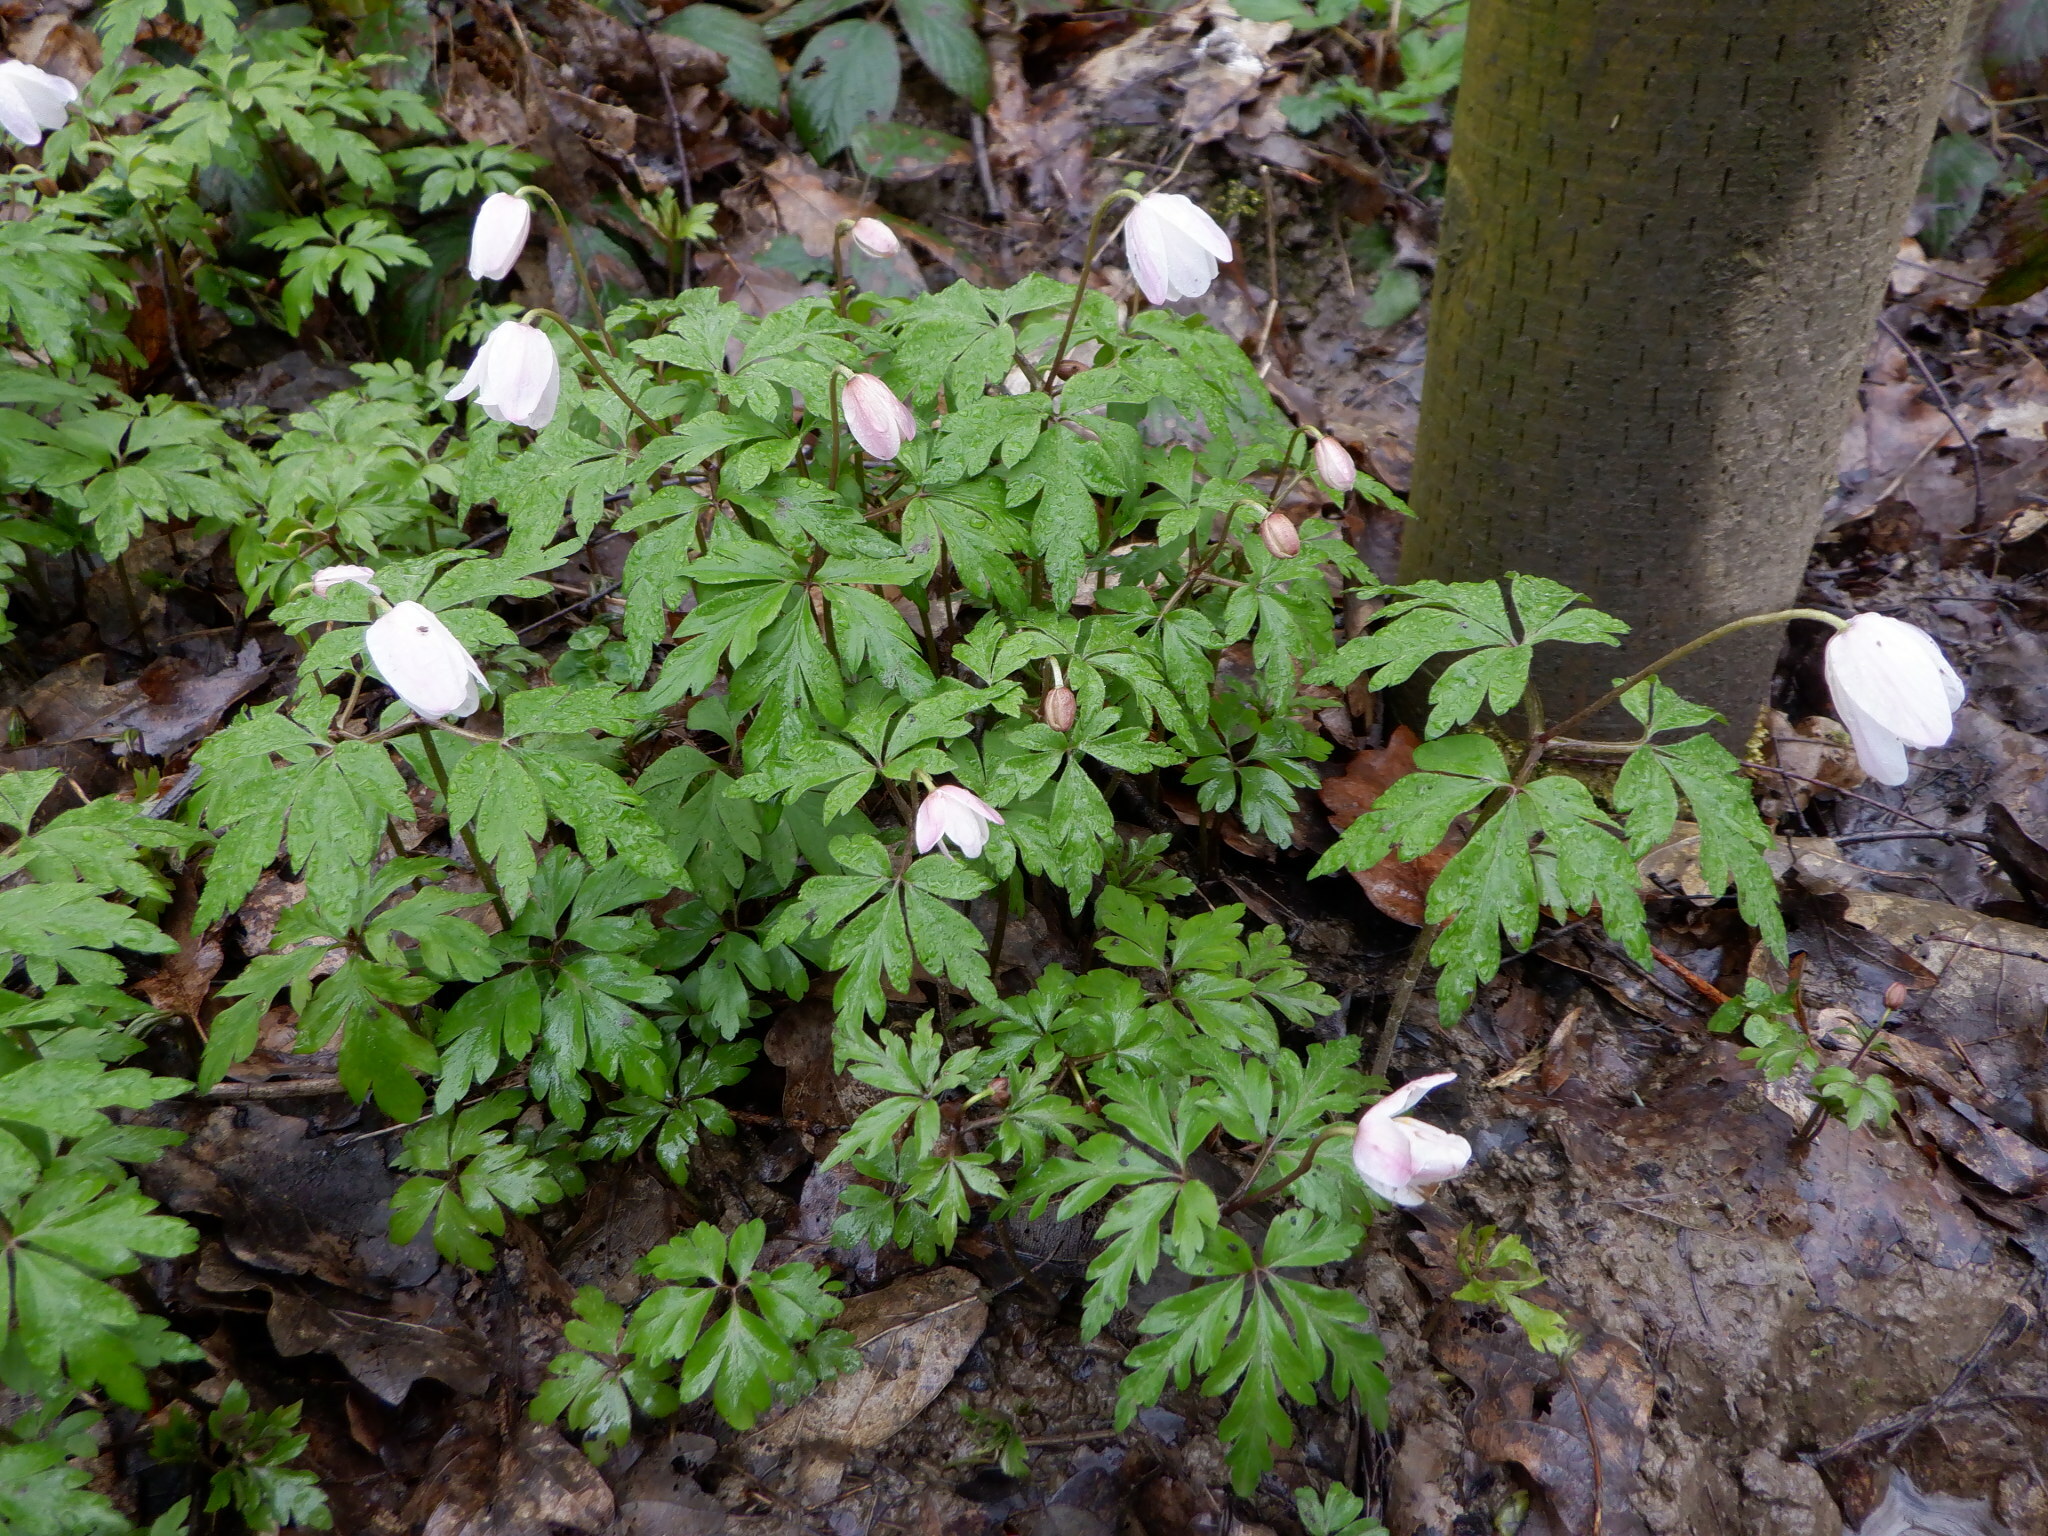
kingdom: Plantae
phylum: Tracheophyta
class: Magnoliopsida
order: Ranunculales
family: Ranunculaceae
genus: Anemone
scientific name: Anemone nemorosa
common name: Wood anemone
